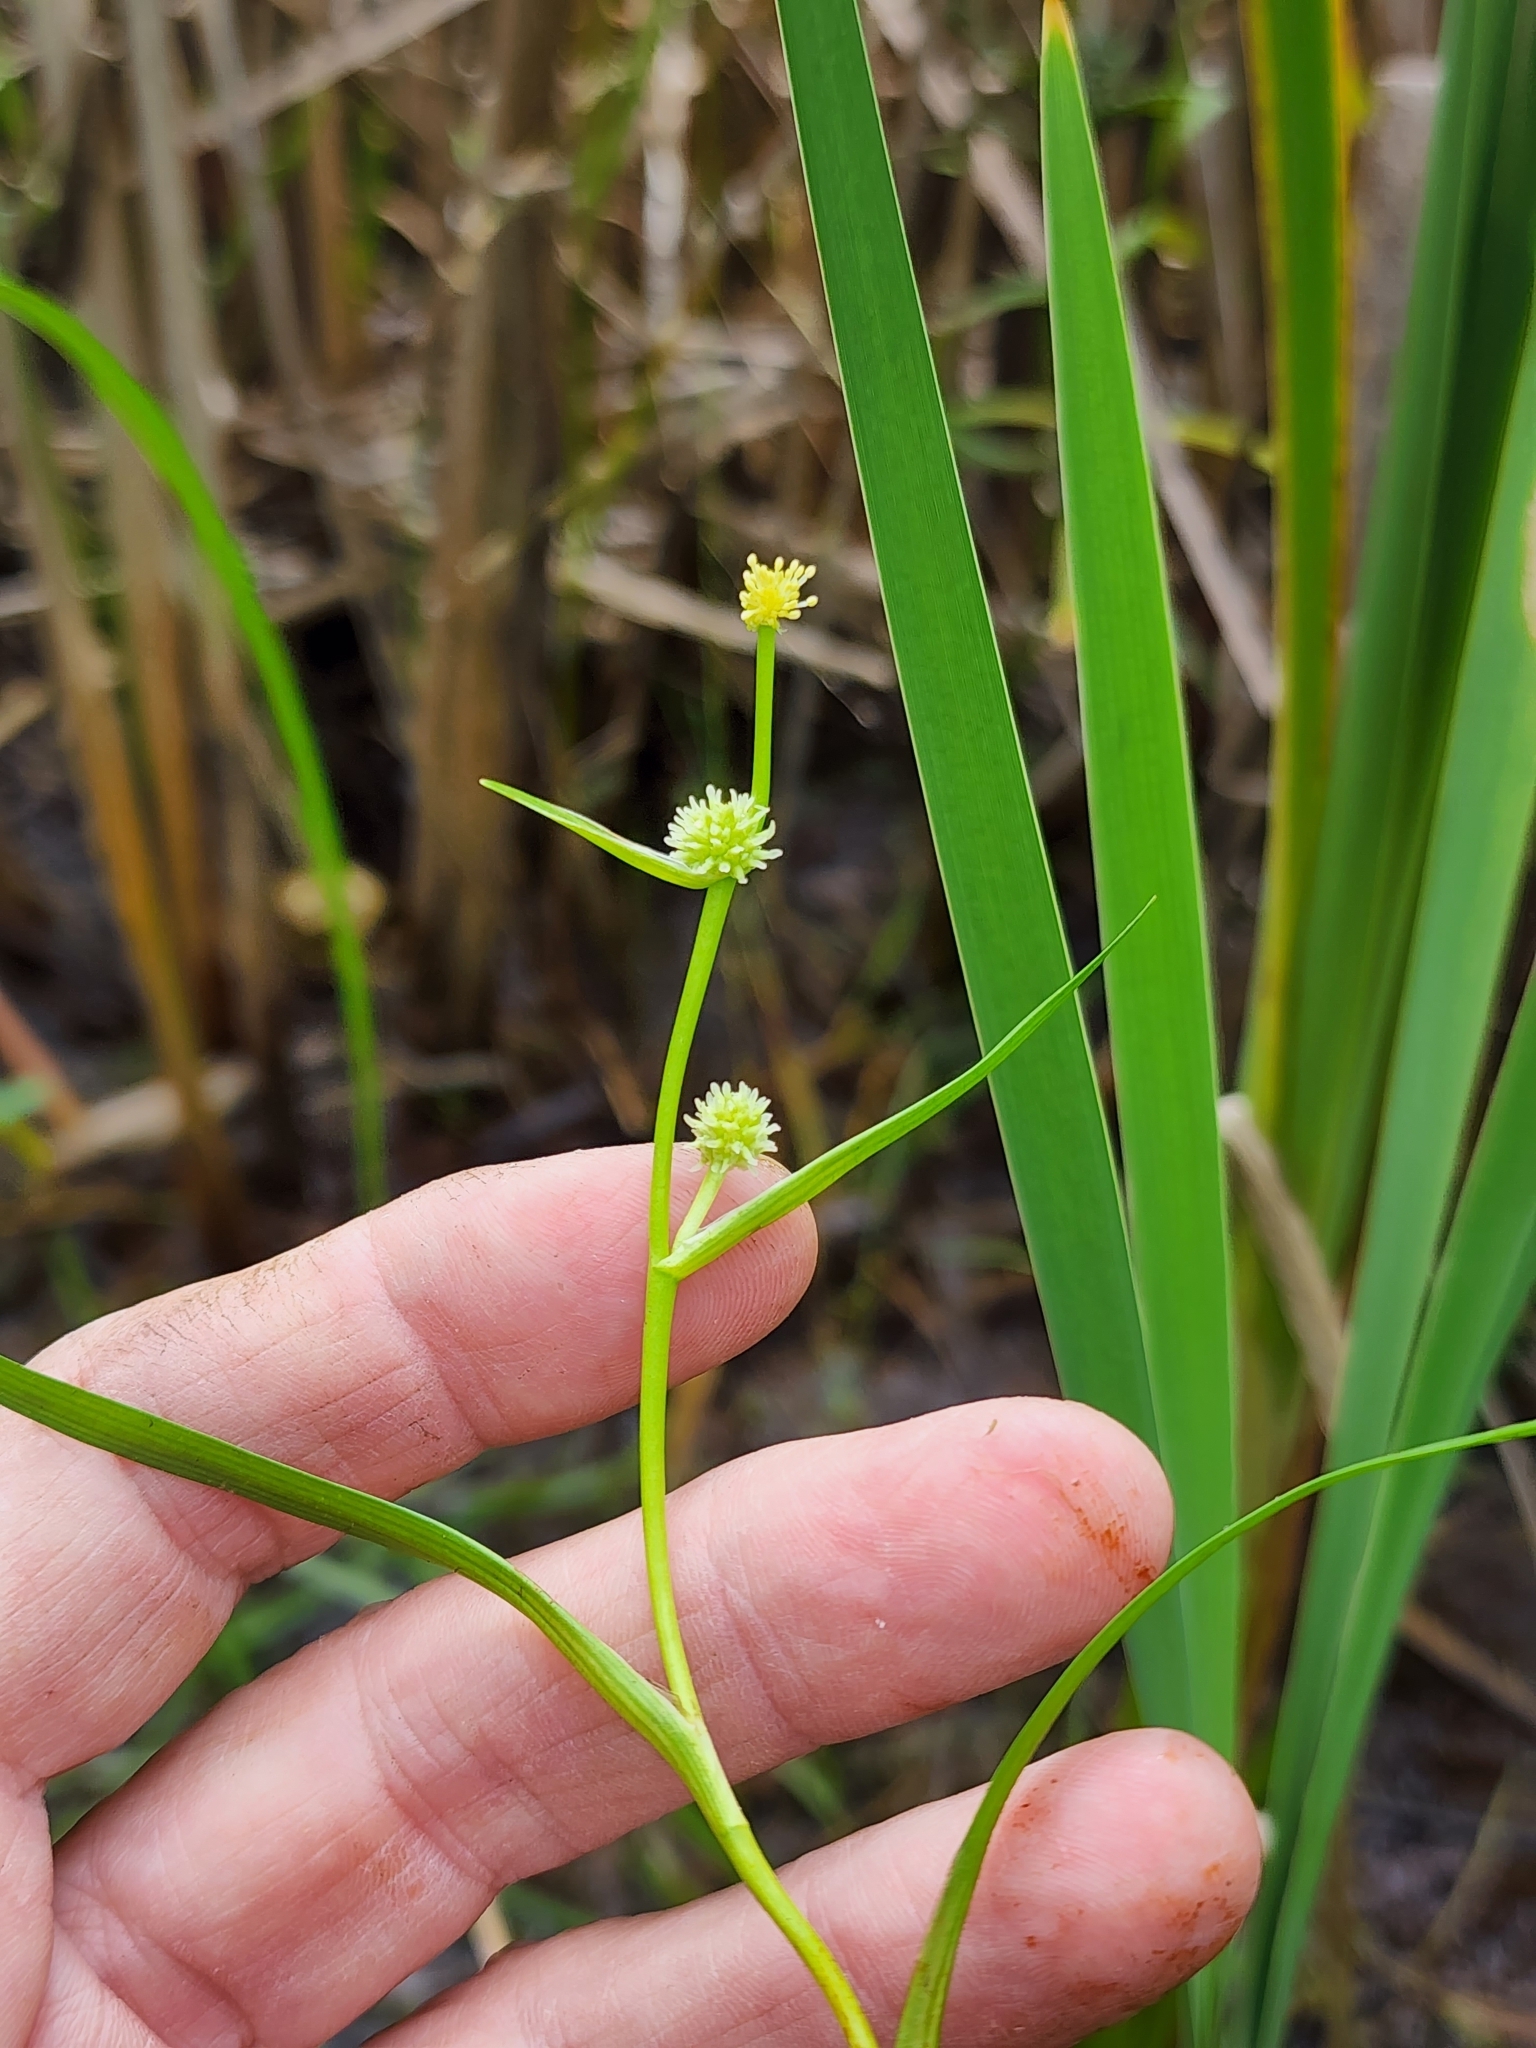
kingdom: Plantae
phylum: Tracheophyta
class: Liliopsida
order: Poales
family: Typhaceae
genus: Sparganium
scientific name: Sparganium natans
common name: Least bur-reed
